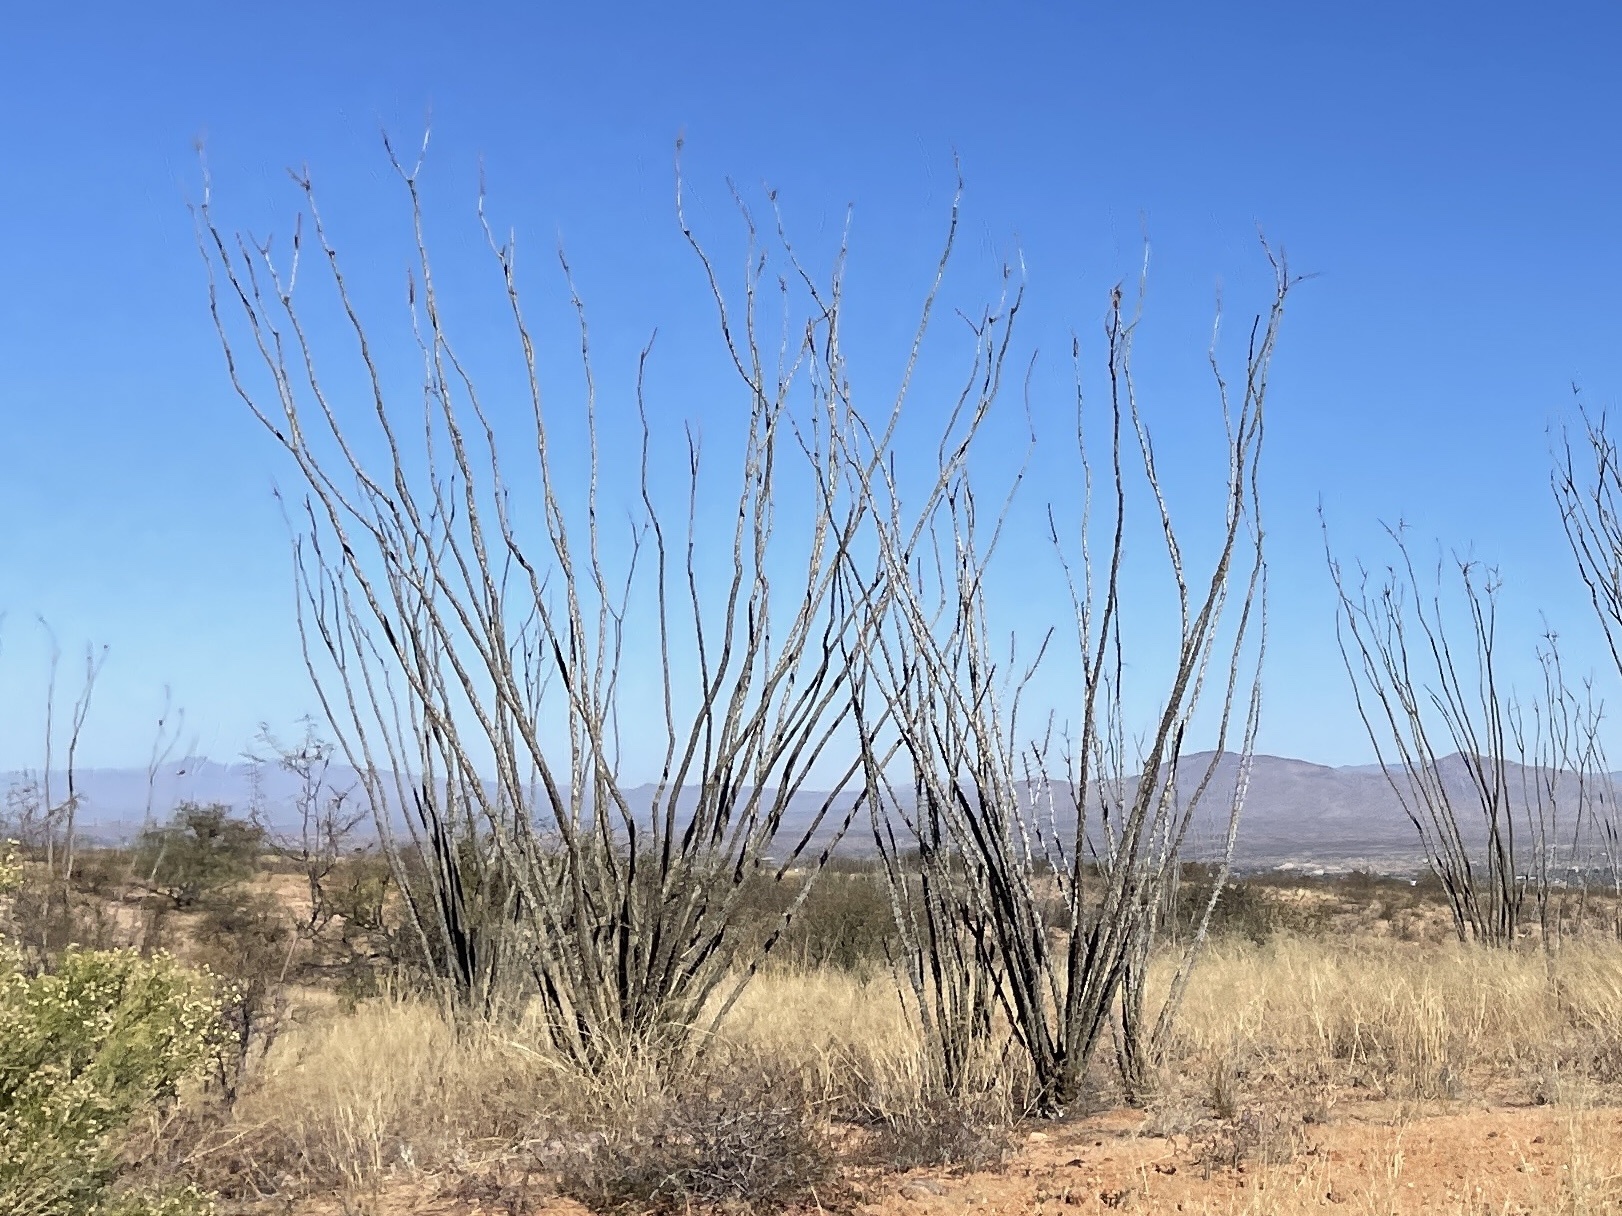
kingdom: Plantae
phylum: Tracheophyta
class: Magnoliopsida
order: Ericales
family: Fouquieriaceae
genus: Fouquieria
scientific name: Fouquieria splendens
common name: Vine-cactus
